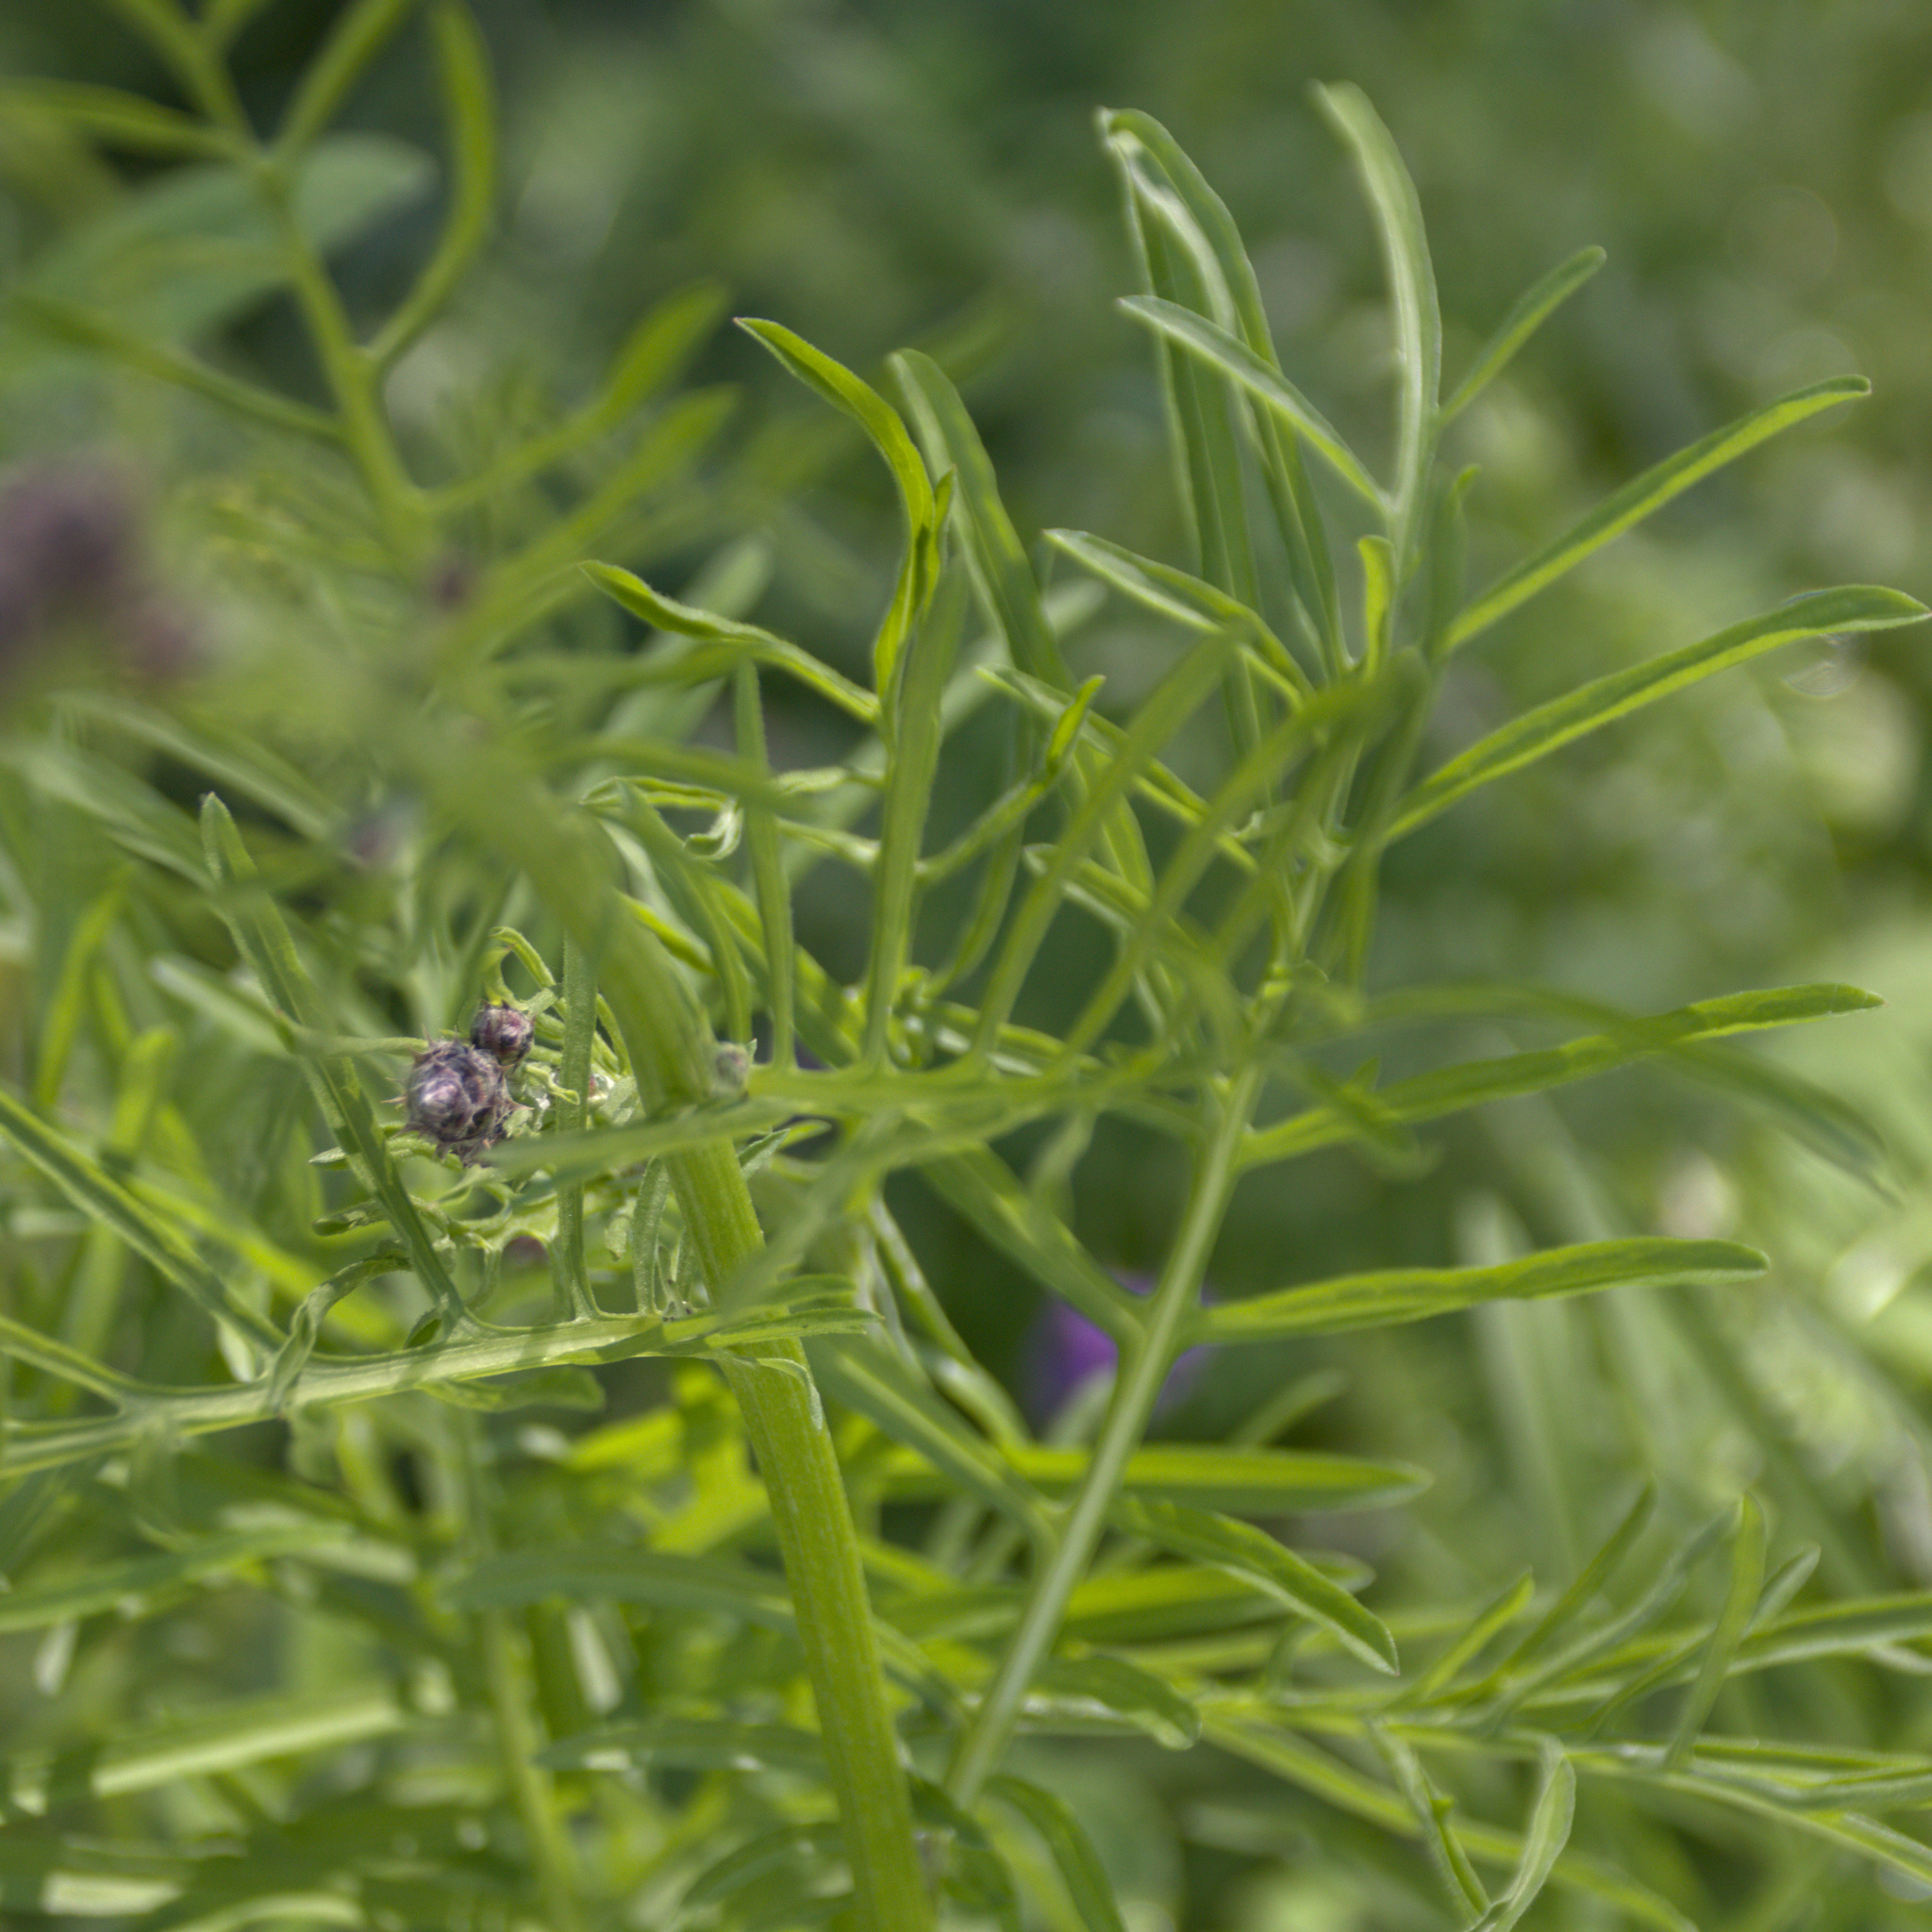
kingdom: Plantae
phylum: Tracheophyta
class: Magnoliopsida
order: Asterales
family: Asteraceae
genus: Centaurea
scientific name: Centaurea scabiosa
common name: Greater knapweed
